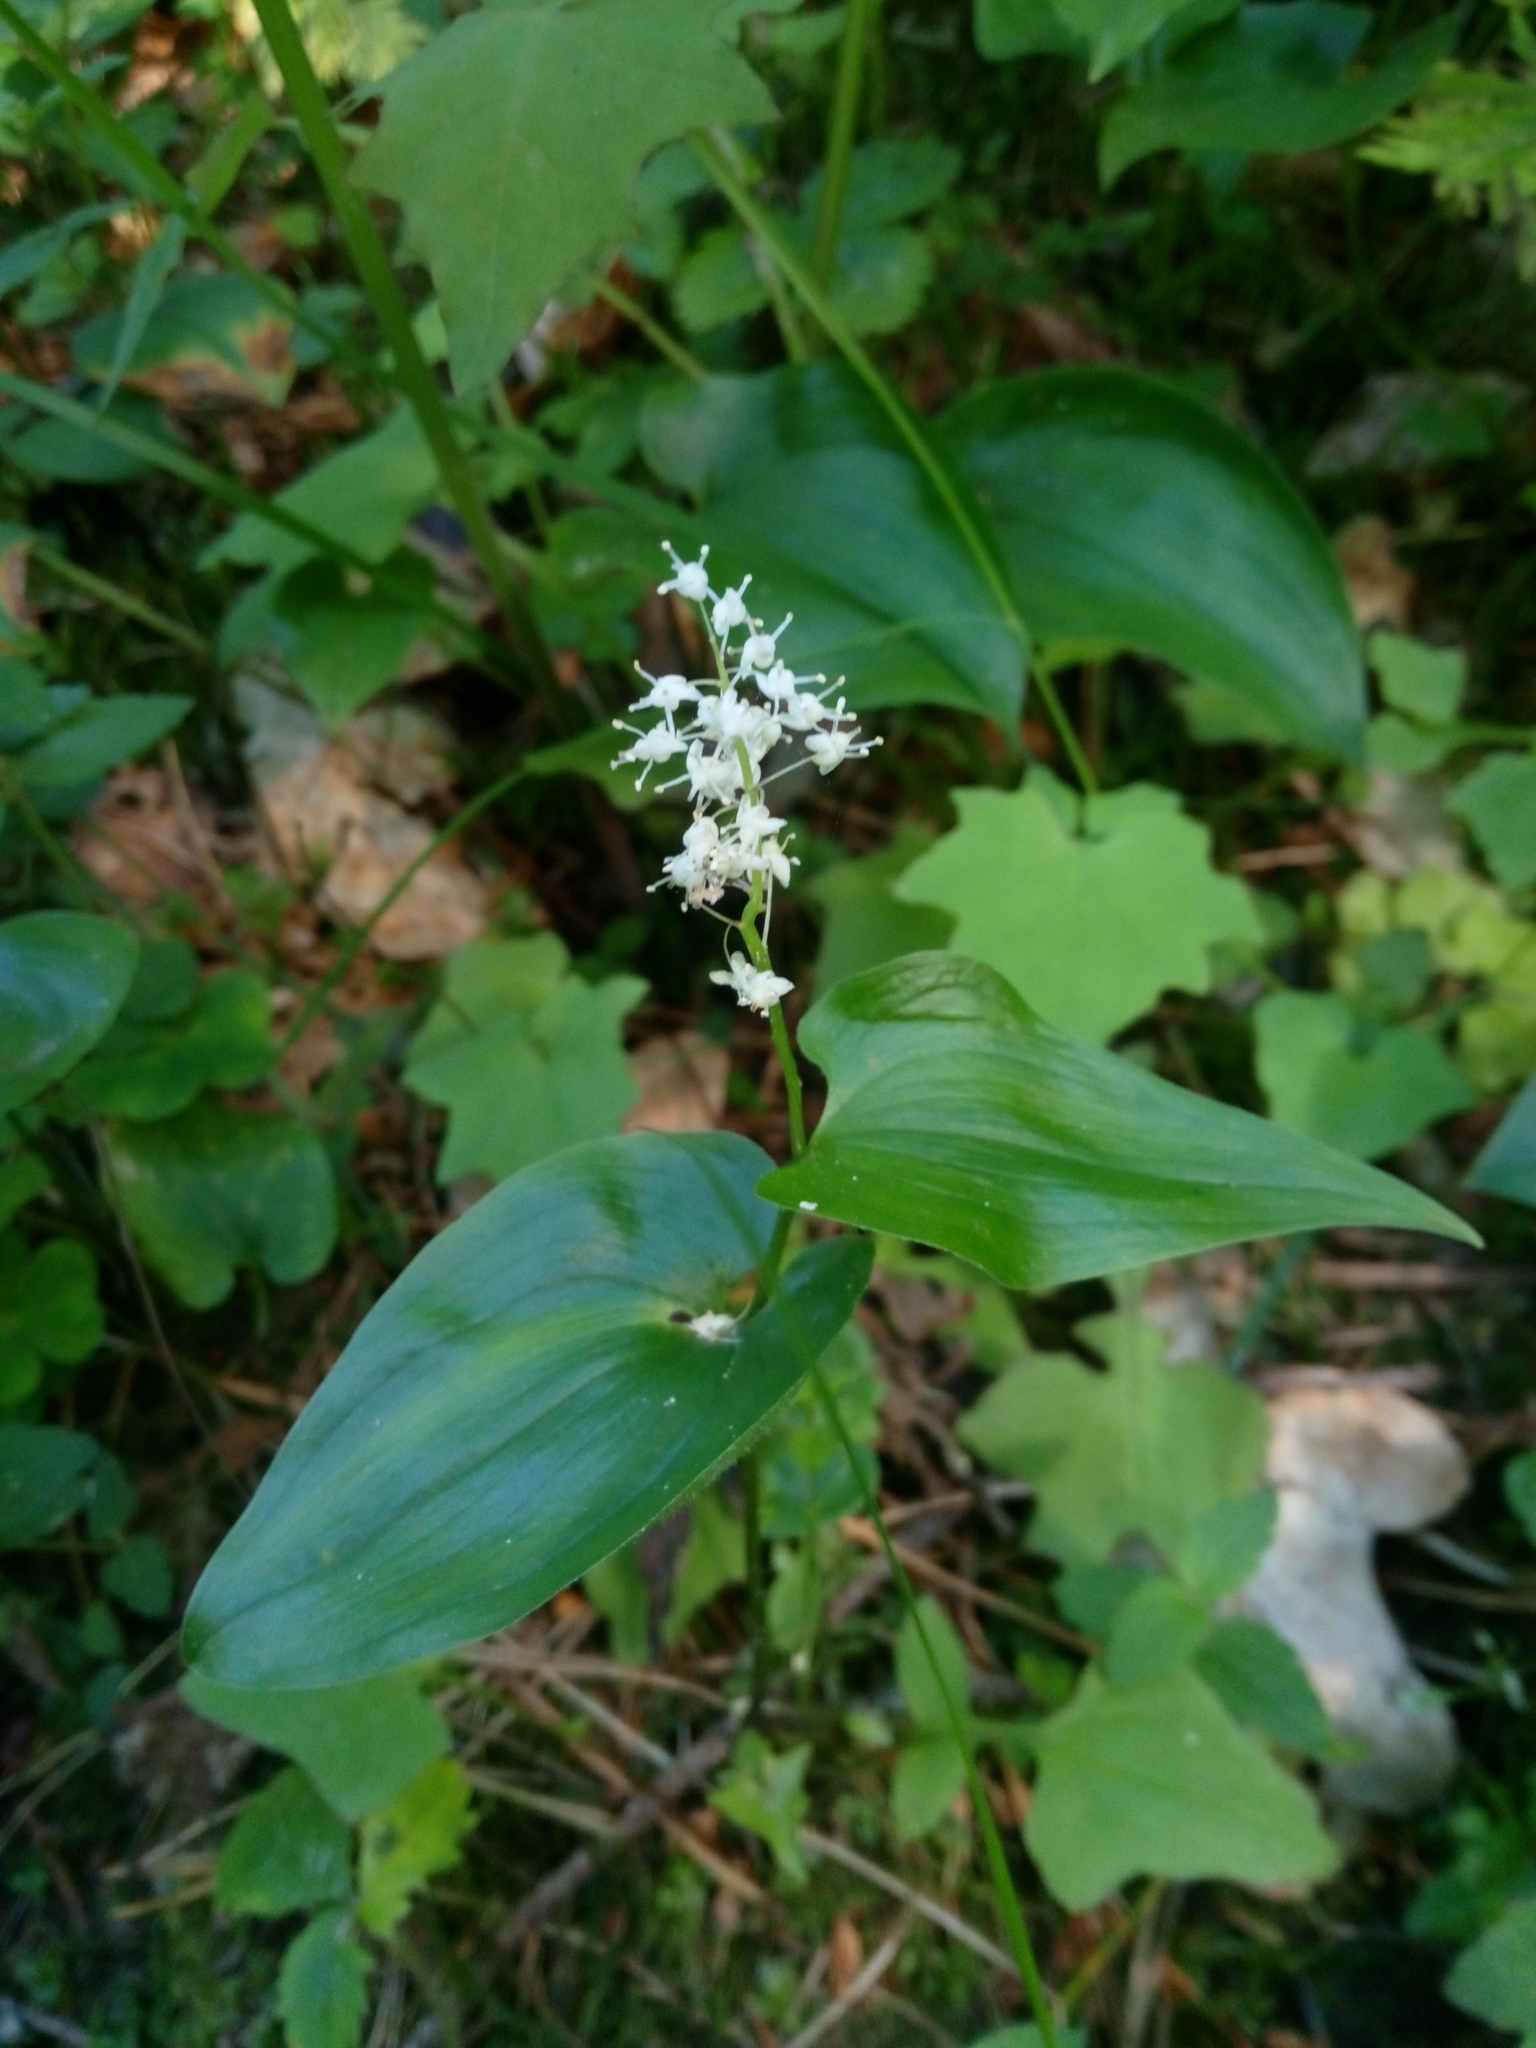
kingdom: Plantae
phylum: Tracheophyta
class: Liliopsida
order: Asparagales
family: Asparagaceae
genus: Maianthemum
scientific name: Maianthemum bifolium
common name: May lily
